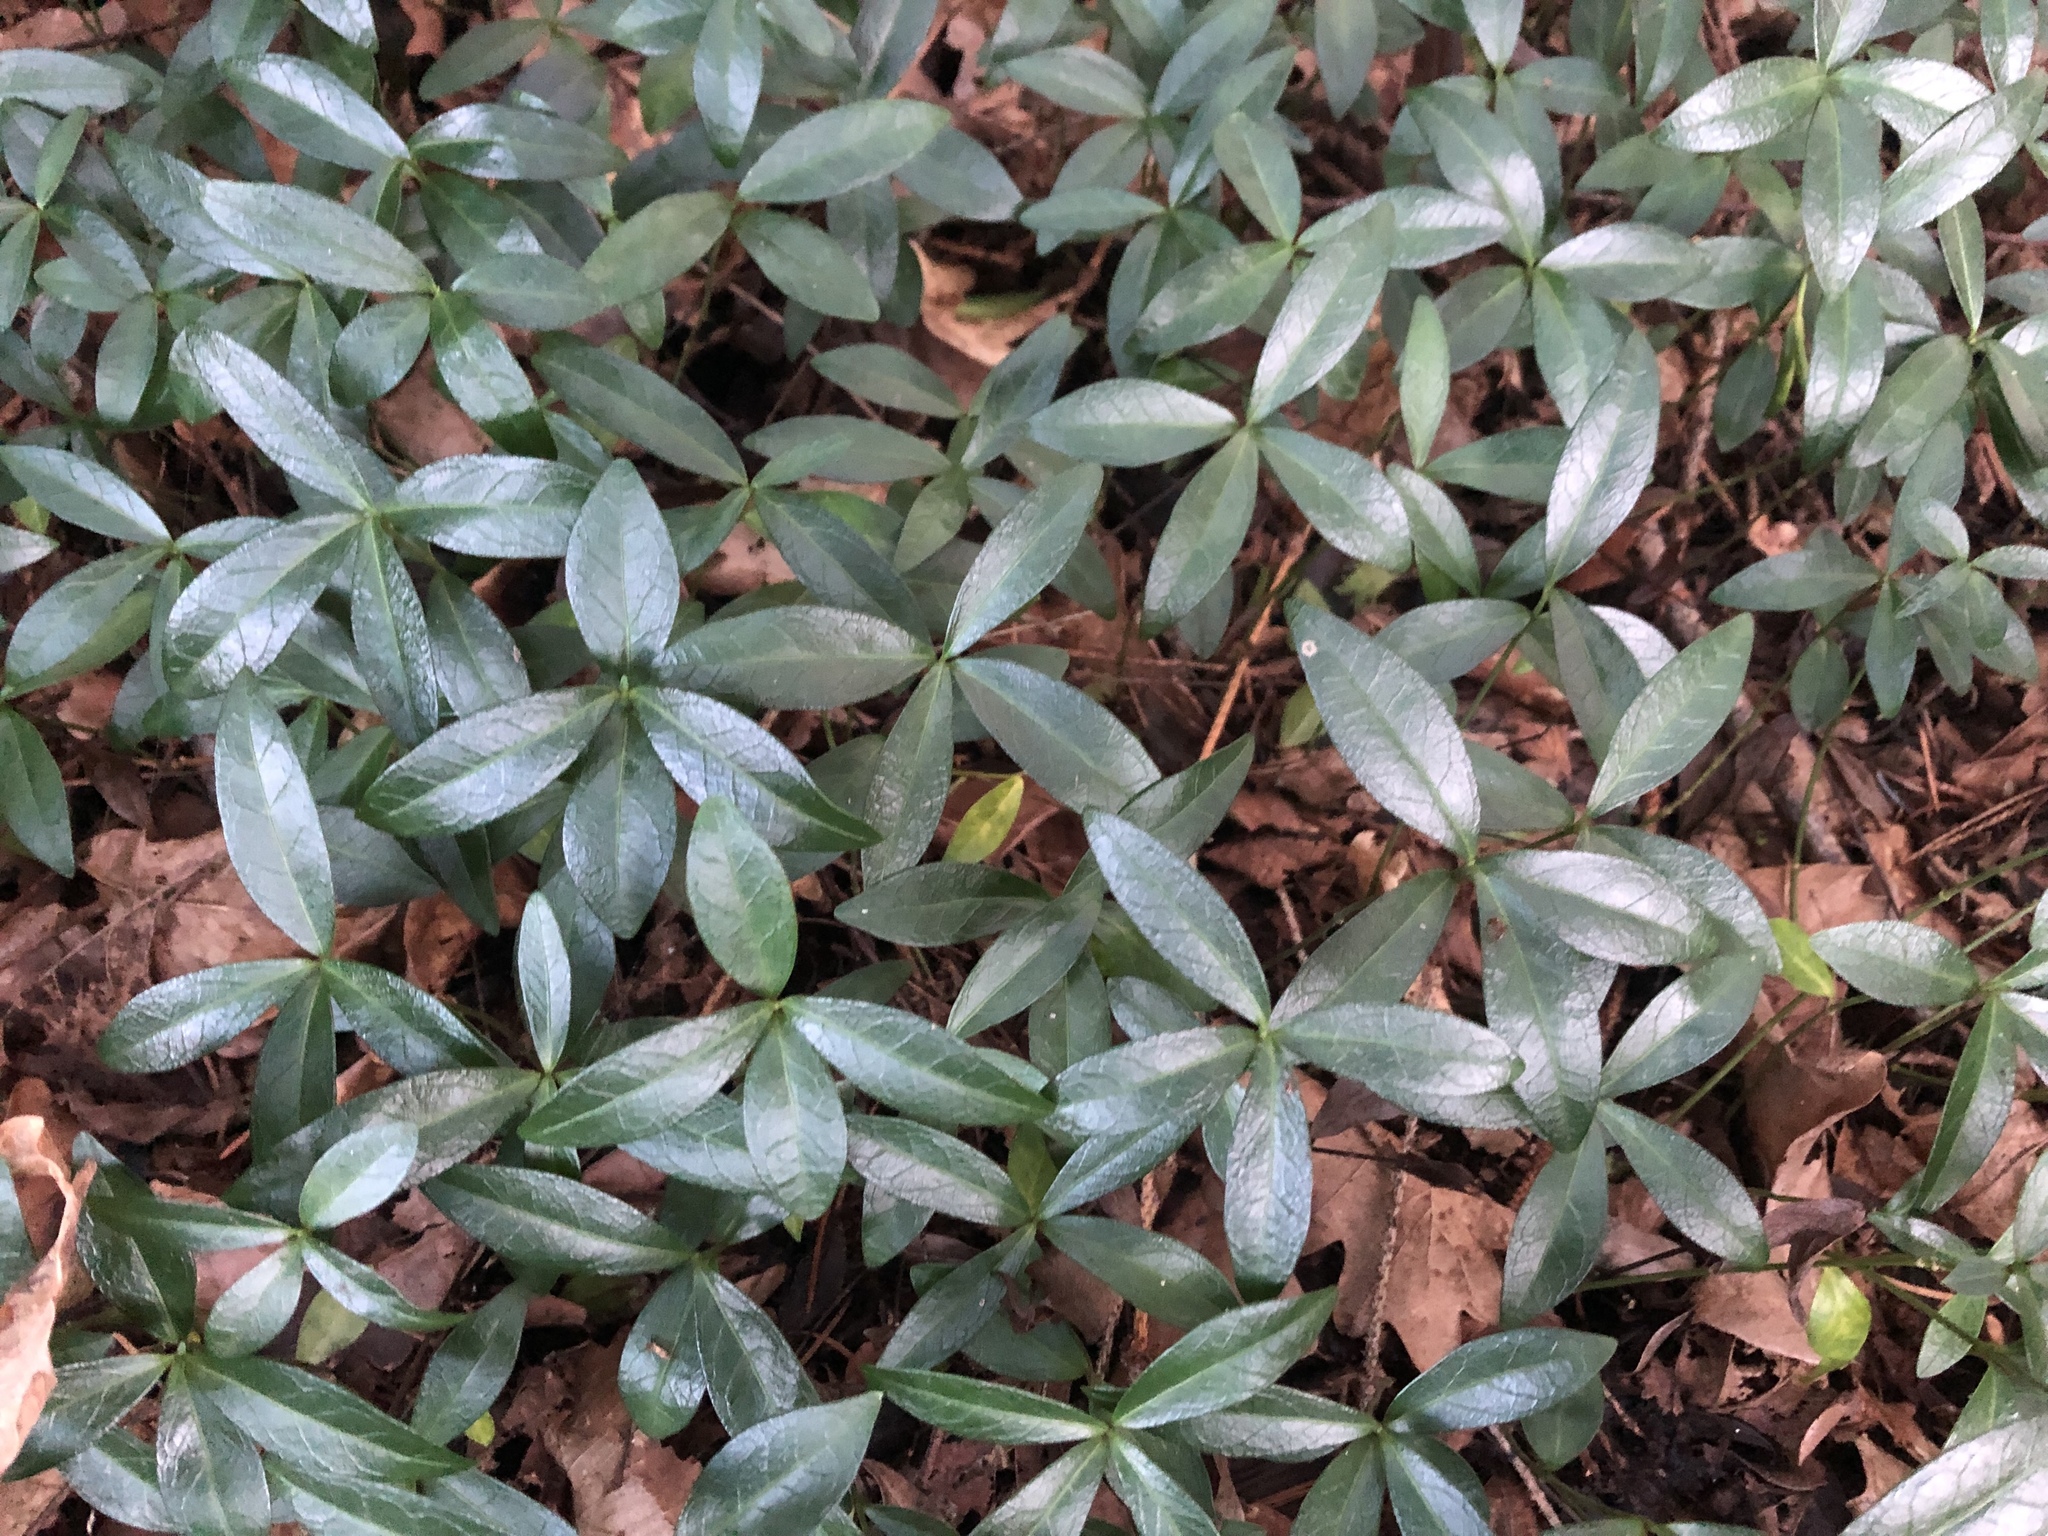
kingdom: Plantae
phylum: Tracheophyta
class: Magnoliopsida
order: Gentianales
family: Apocynaceae
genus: Vinca
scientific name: Vinca minor
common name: Lesser periwinkle
